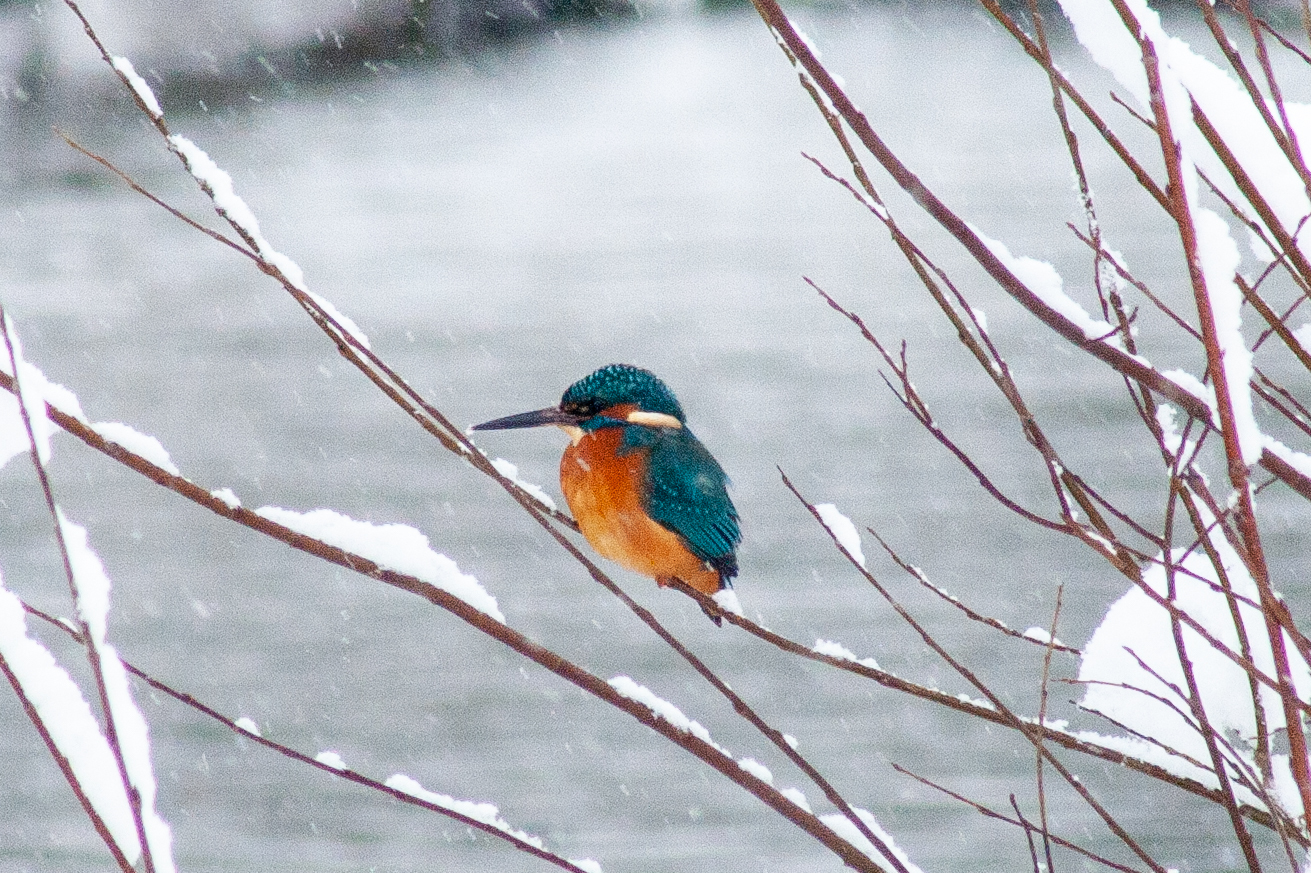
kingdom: Animalia
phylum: Chordata
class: Aves
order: Coraciiformes
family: Alcedinidae
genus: Alcedo
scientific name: Alcedo atthis
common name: Common kingfisher
